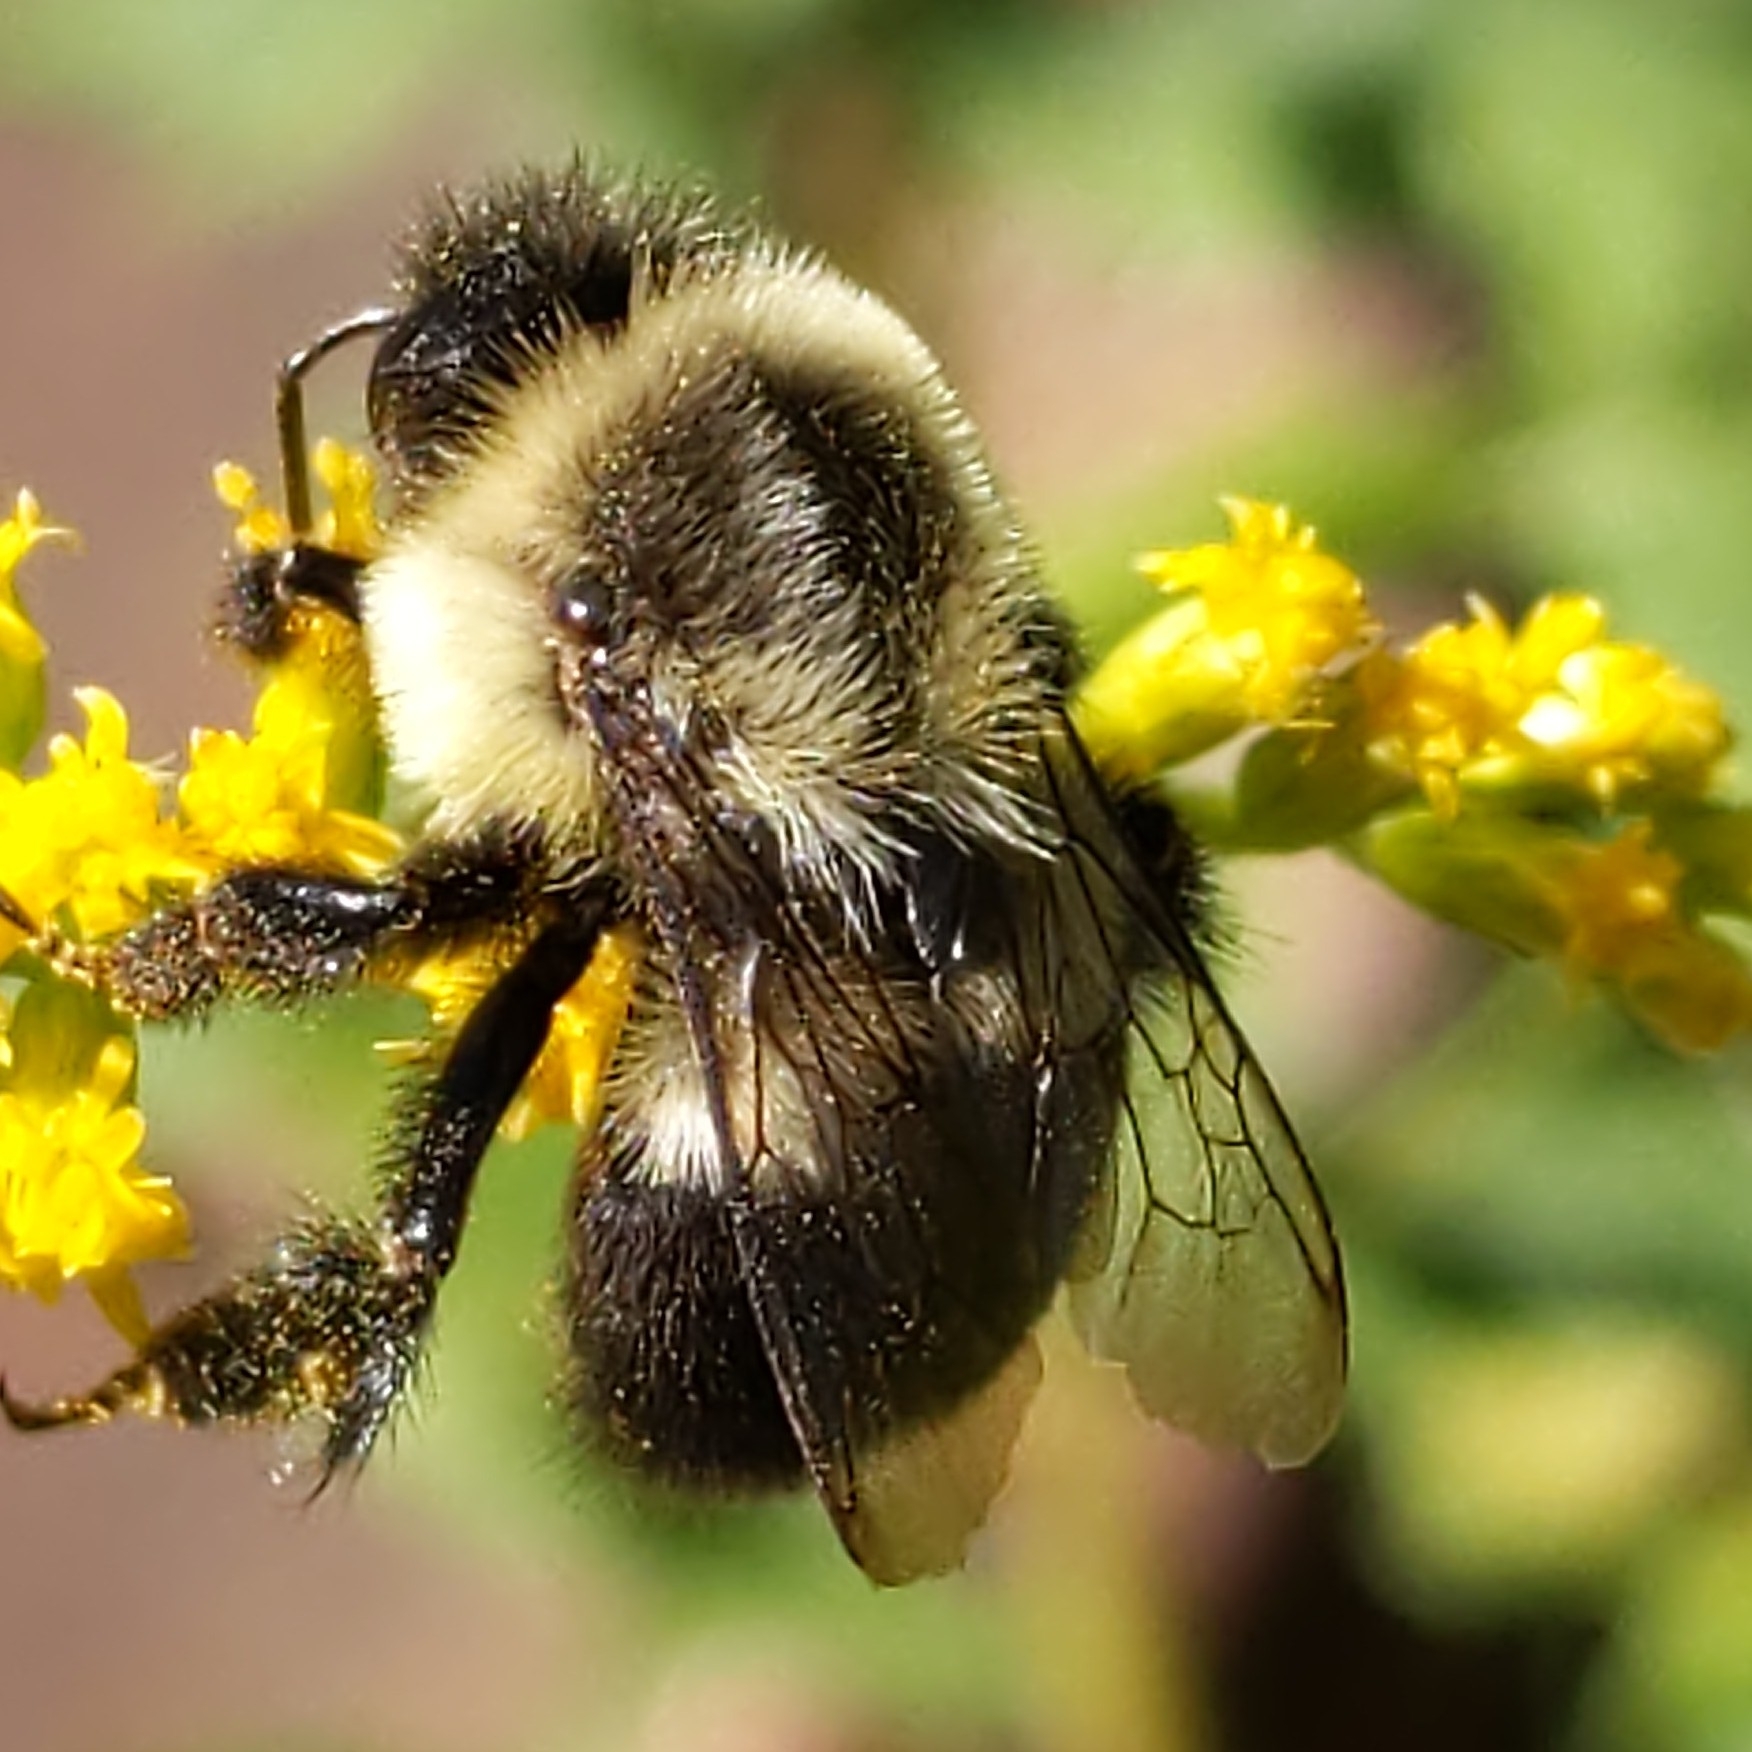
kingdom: Animalia
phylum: Arthropoda
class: Insecta
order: Hymenoptera
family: Apidae
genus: Bombus
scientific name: Bombus impatiens
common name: Common eastern bumble bee
